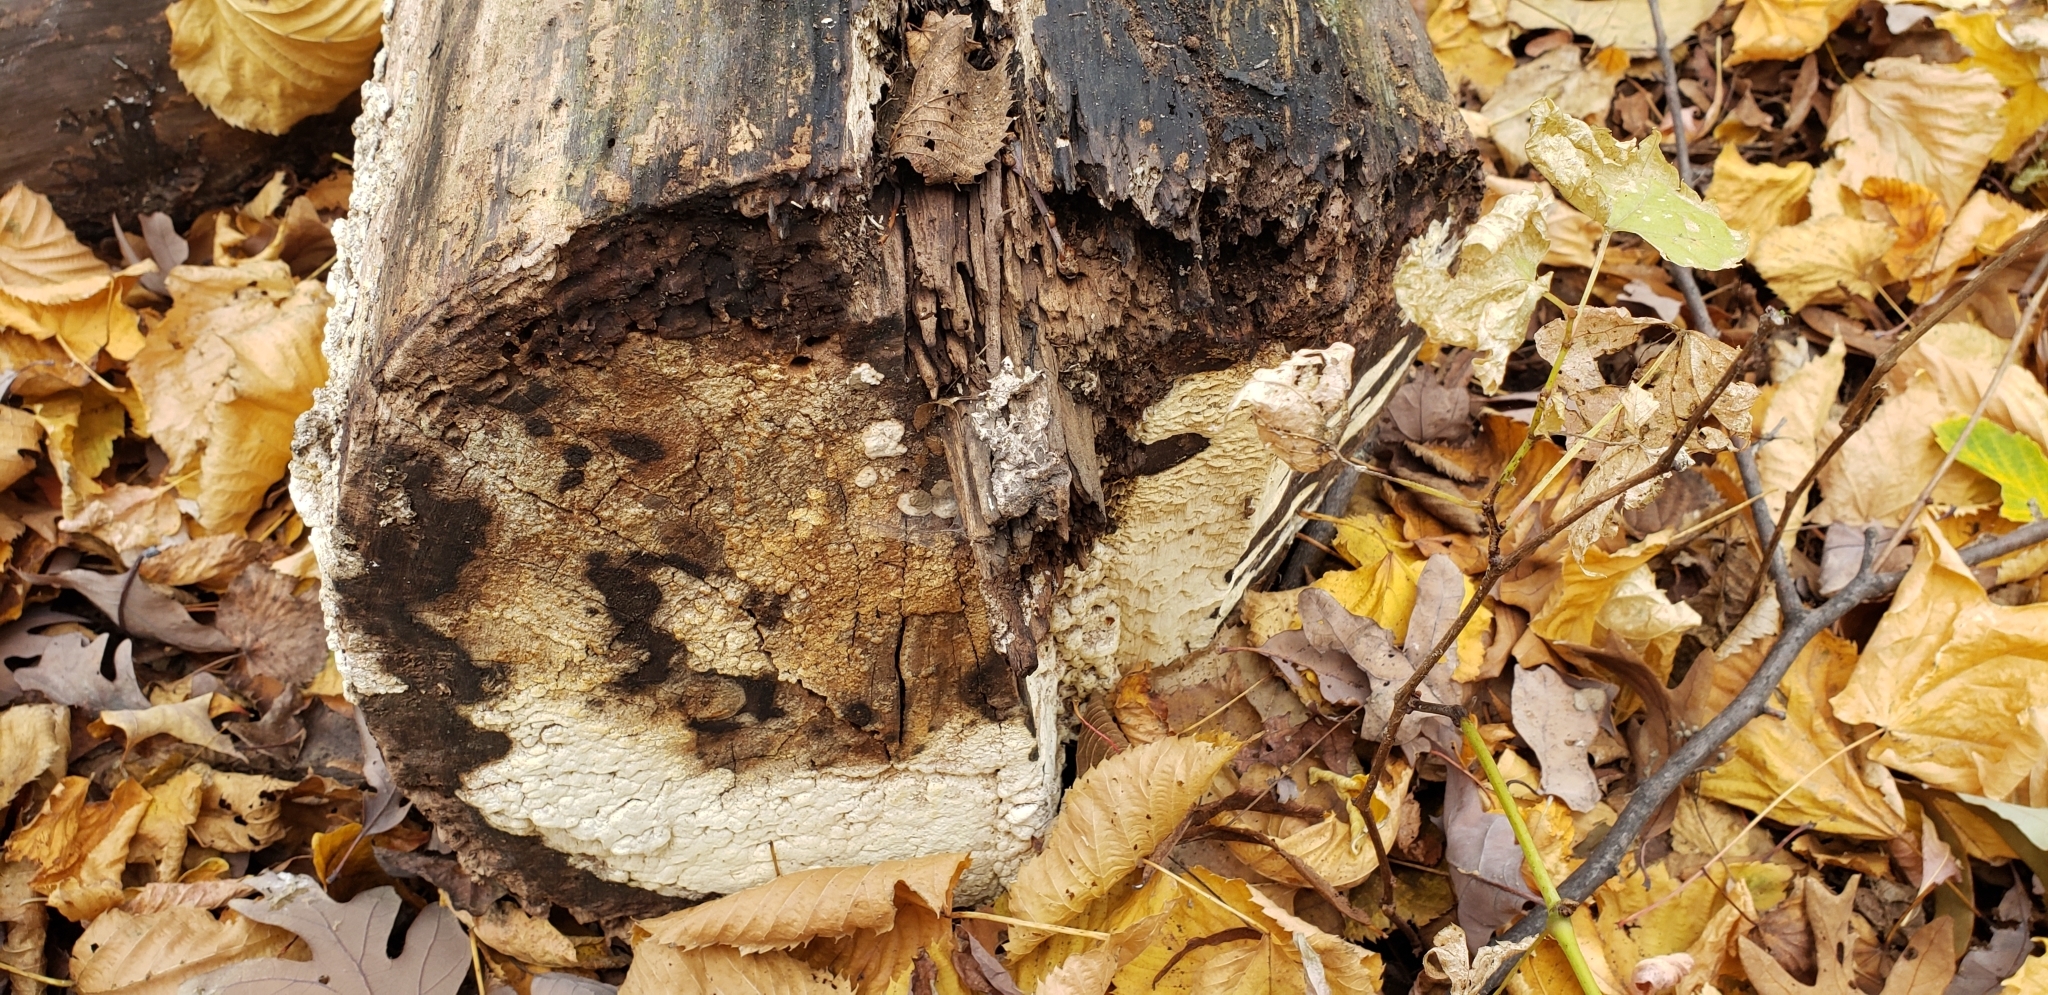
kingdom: Fungi
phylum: Basidiomycota
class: Agaricomycetes
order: Polyporales
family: Fomitopsidaceae
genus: Neoantrodia
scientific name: Neoantrodia serialis
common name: Serried porecrust
